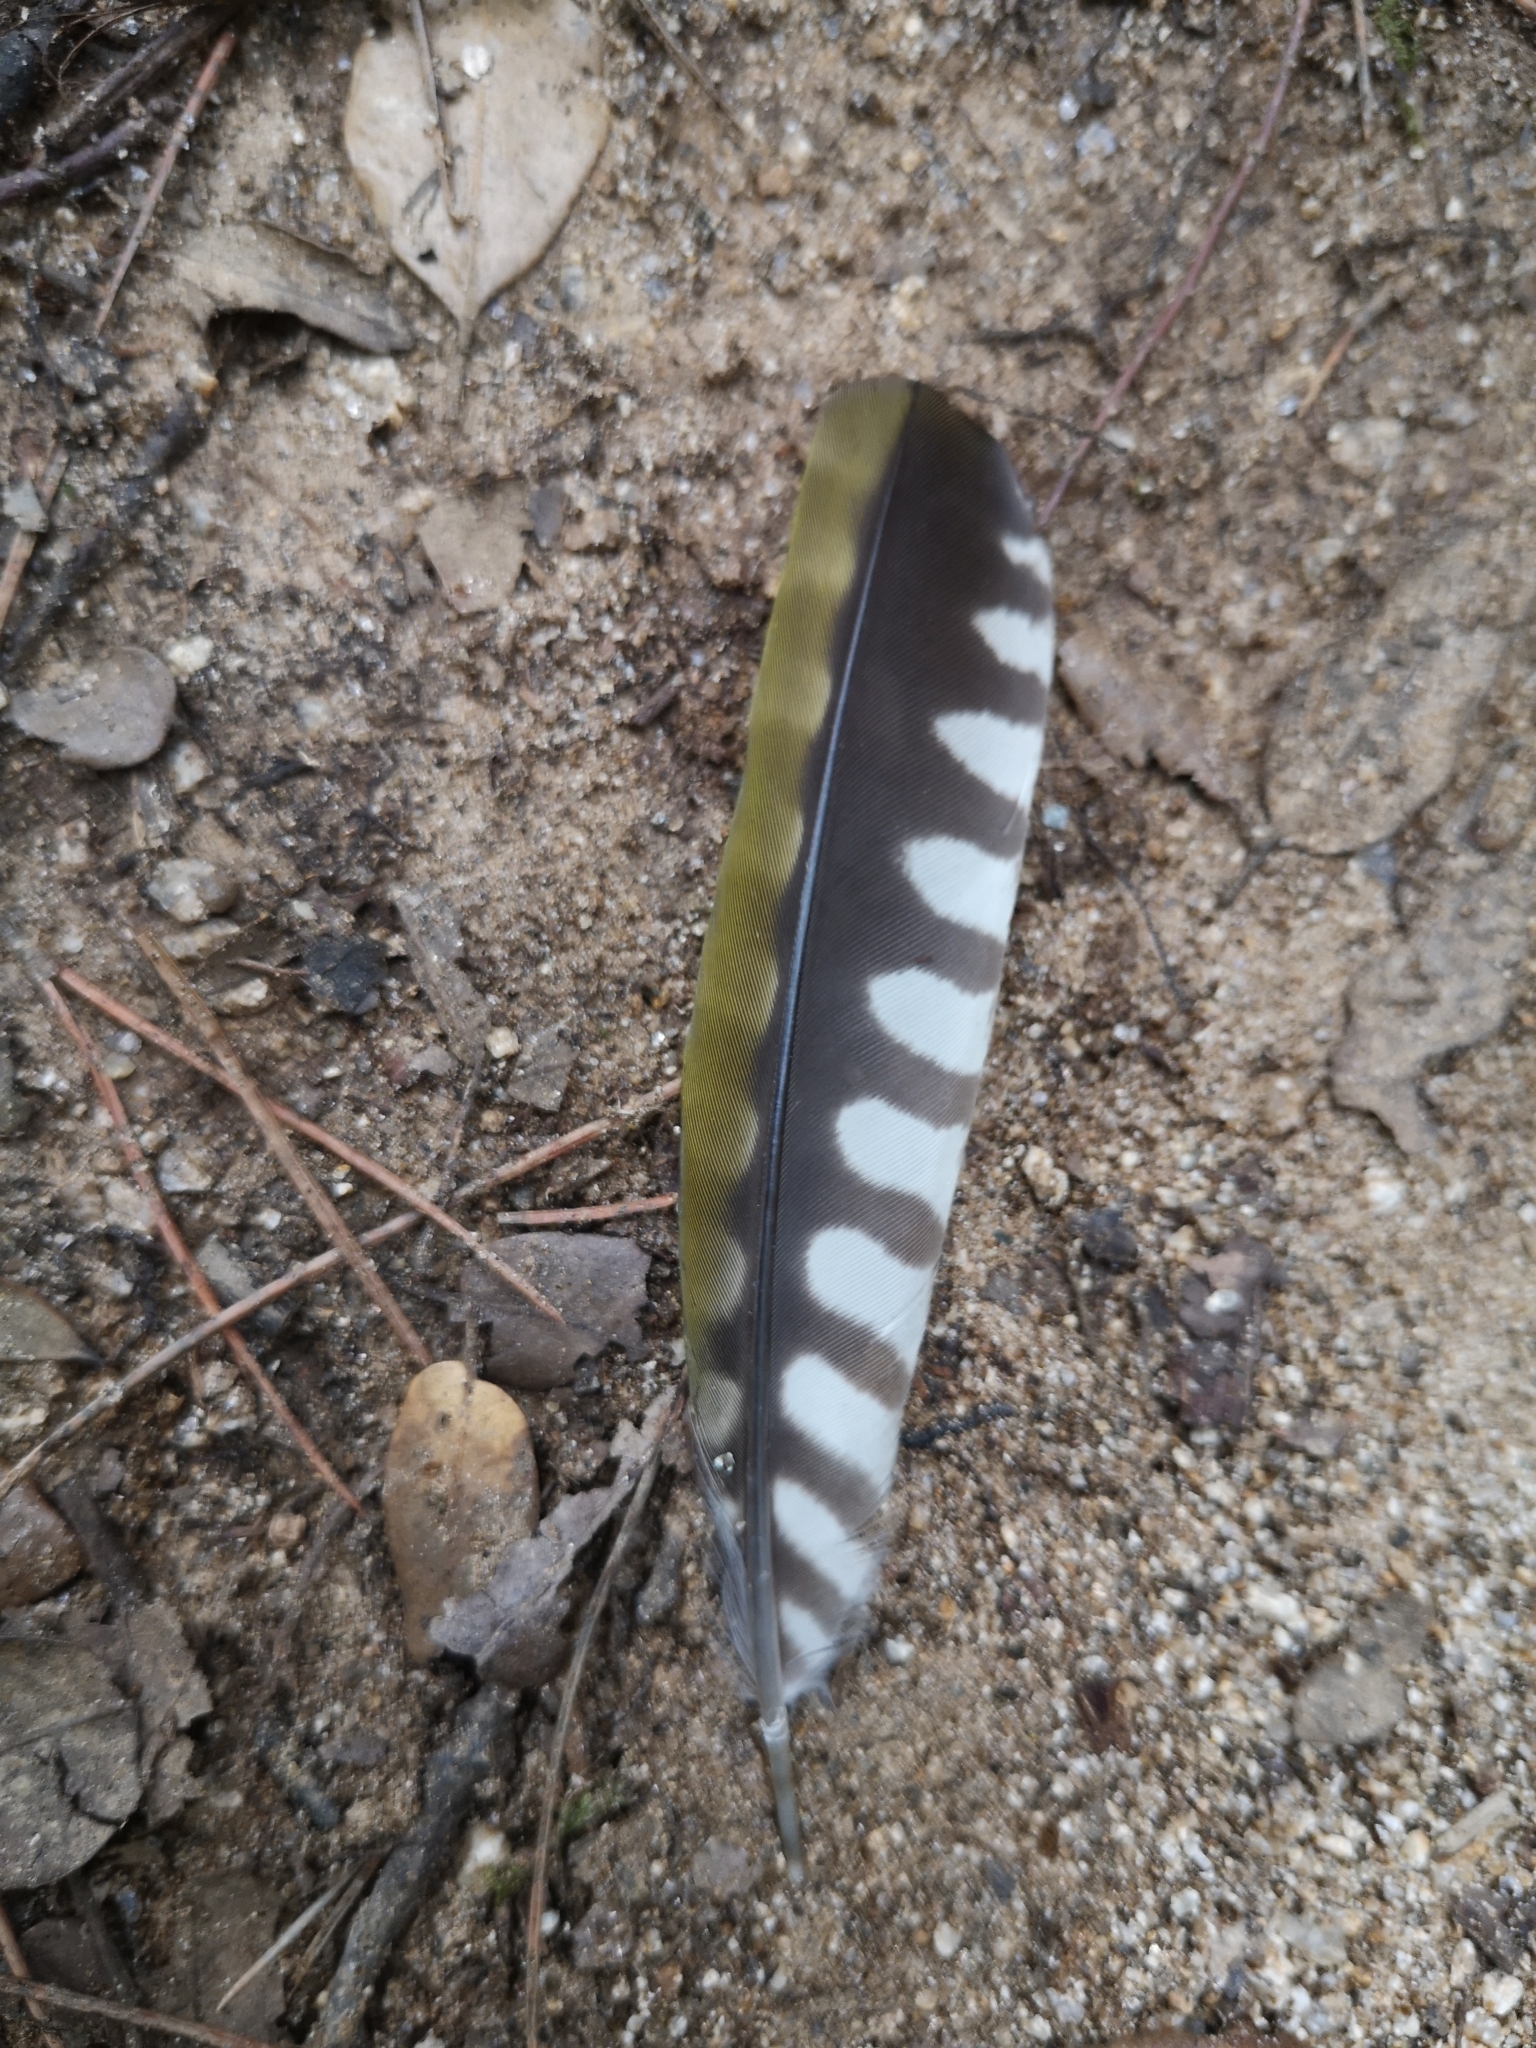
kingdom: Animalia
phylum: Chordata
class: Aves
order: Piciformes
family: Picidae
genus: Picus
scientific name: Picus sharpei
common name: Iberian green woodpecker
